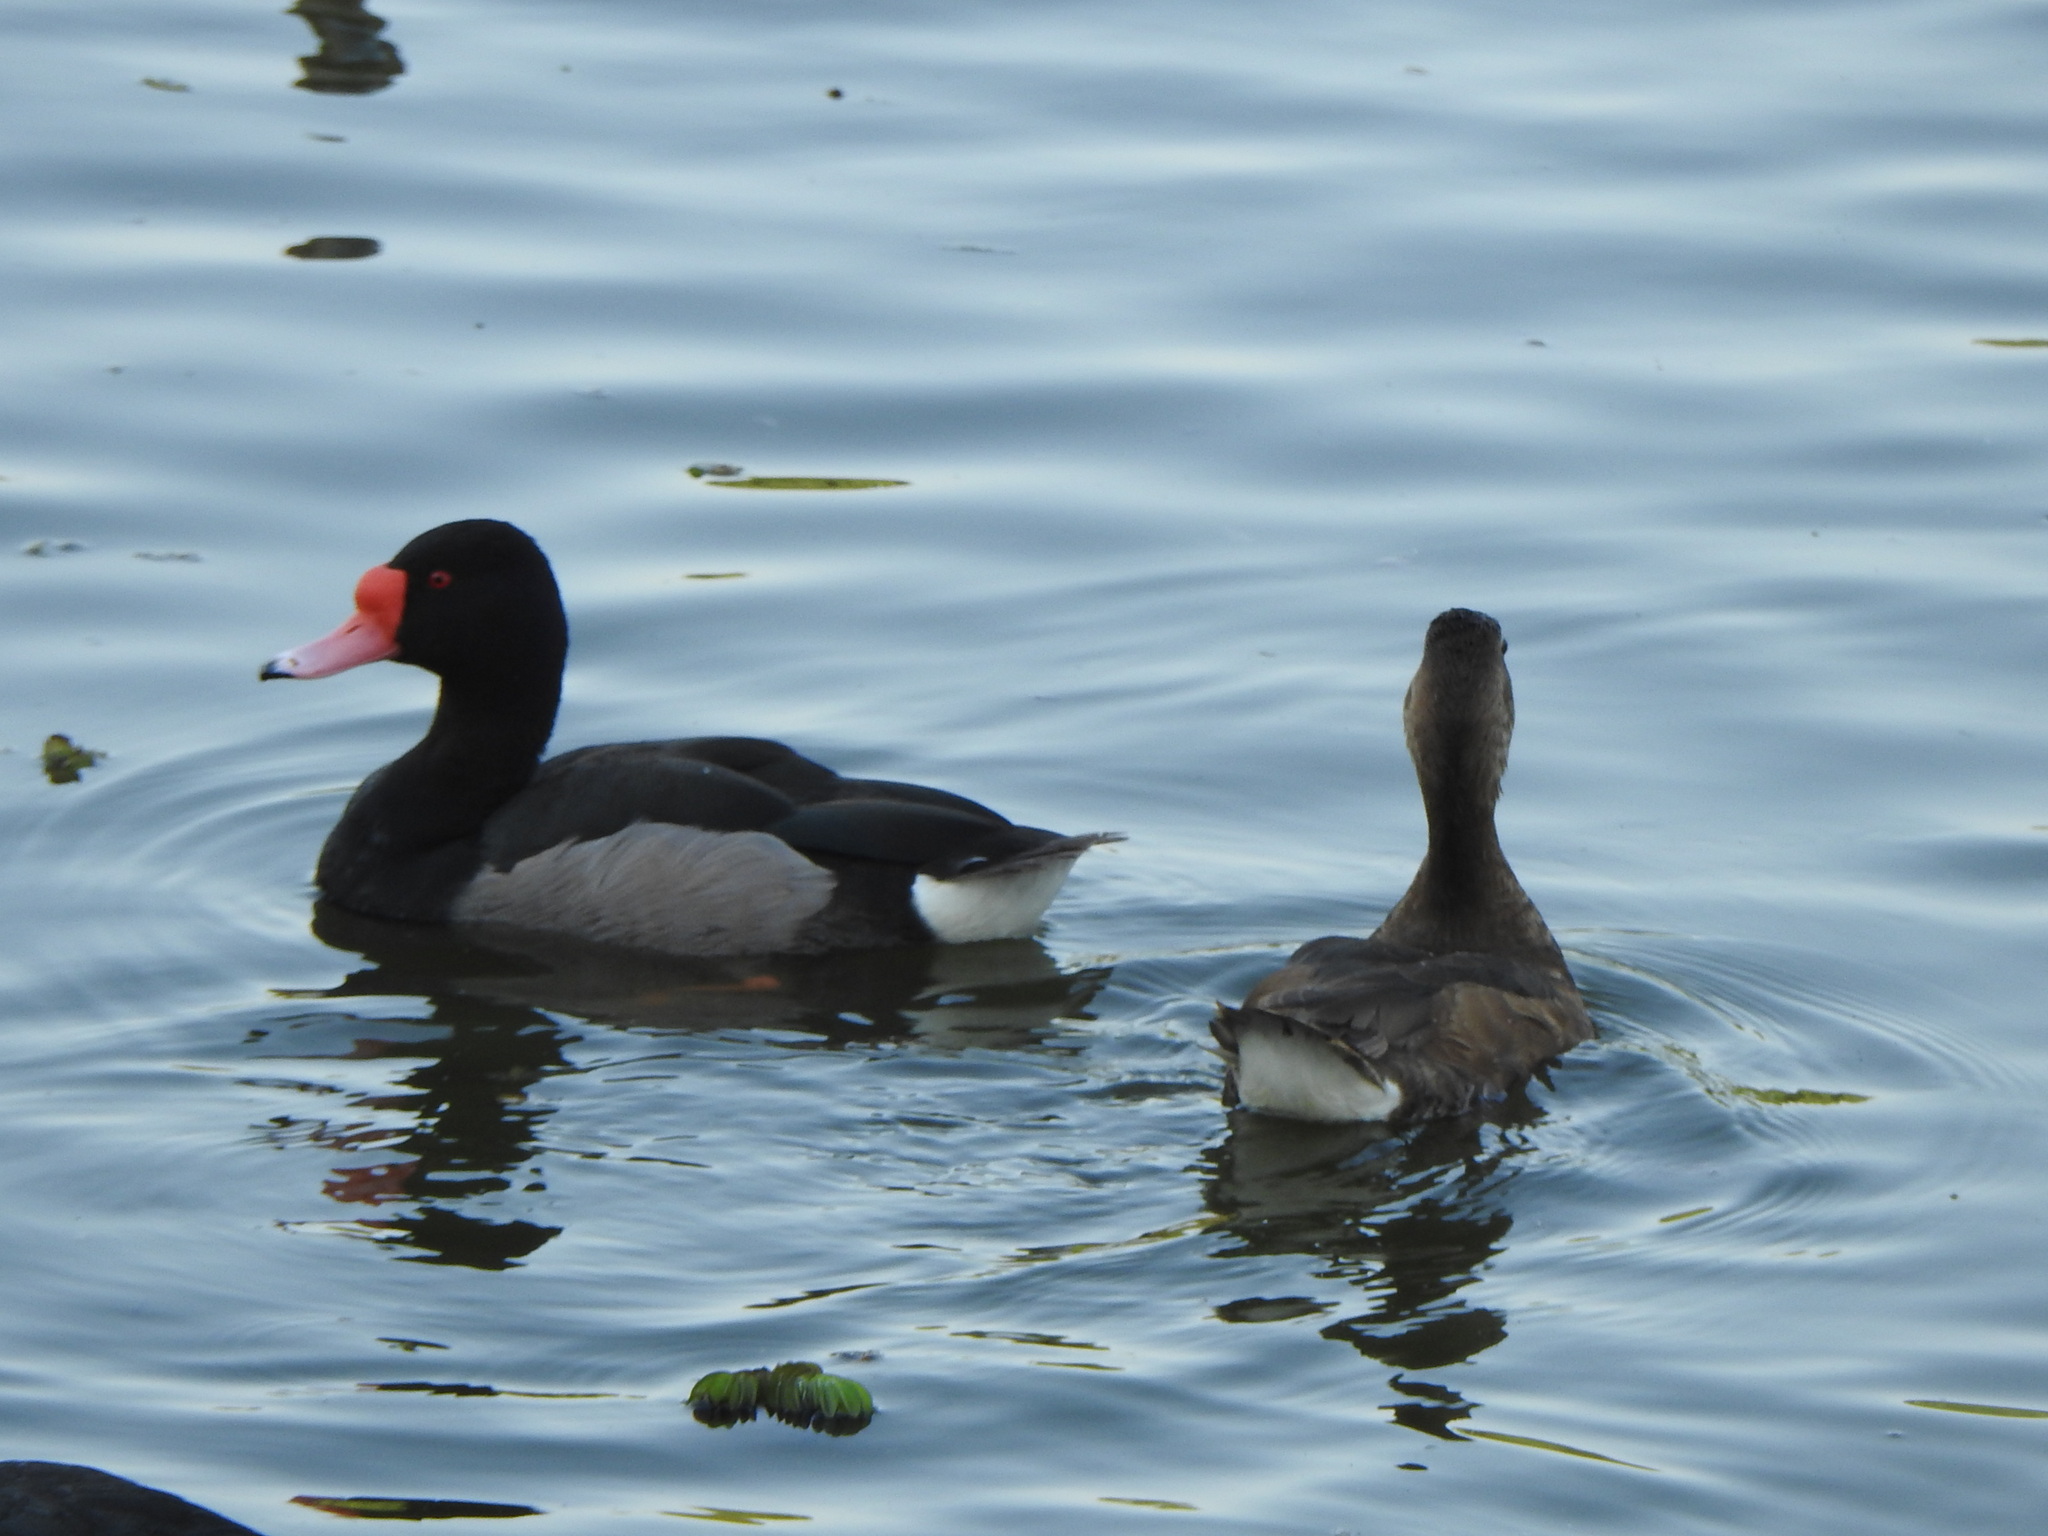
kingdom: Animalia
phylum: Chordata
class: Aves
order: Anseriformes
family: Anatidae
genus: Netta
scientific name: Netta peposaca
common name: Rosy-billed pochard
